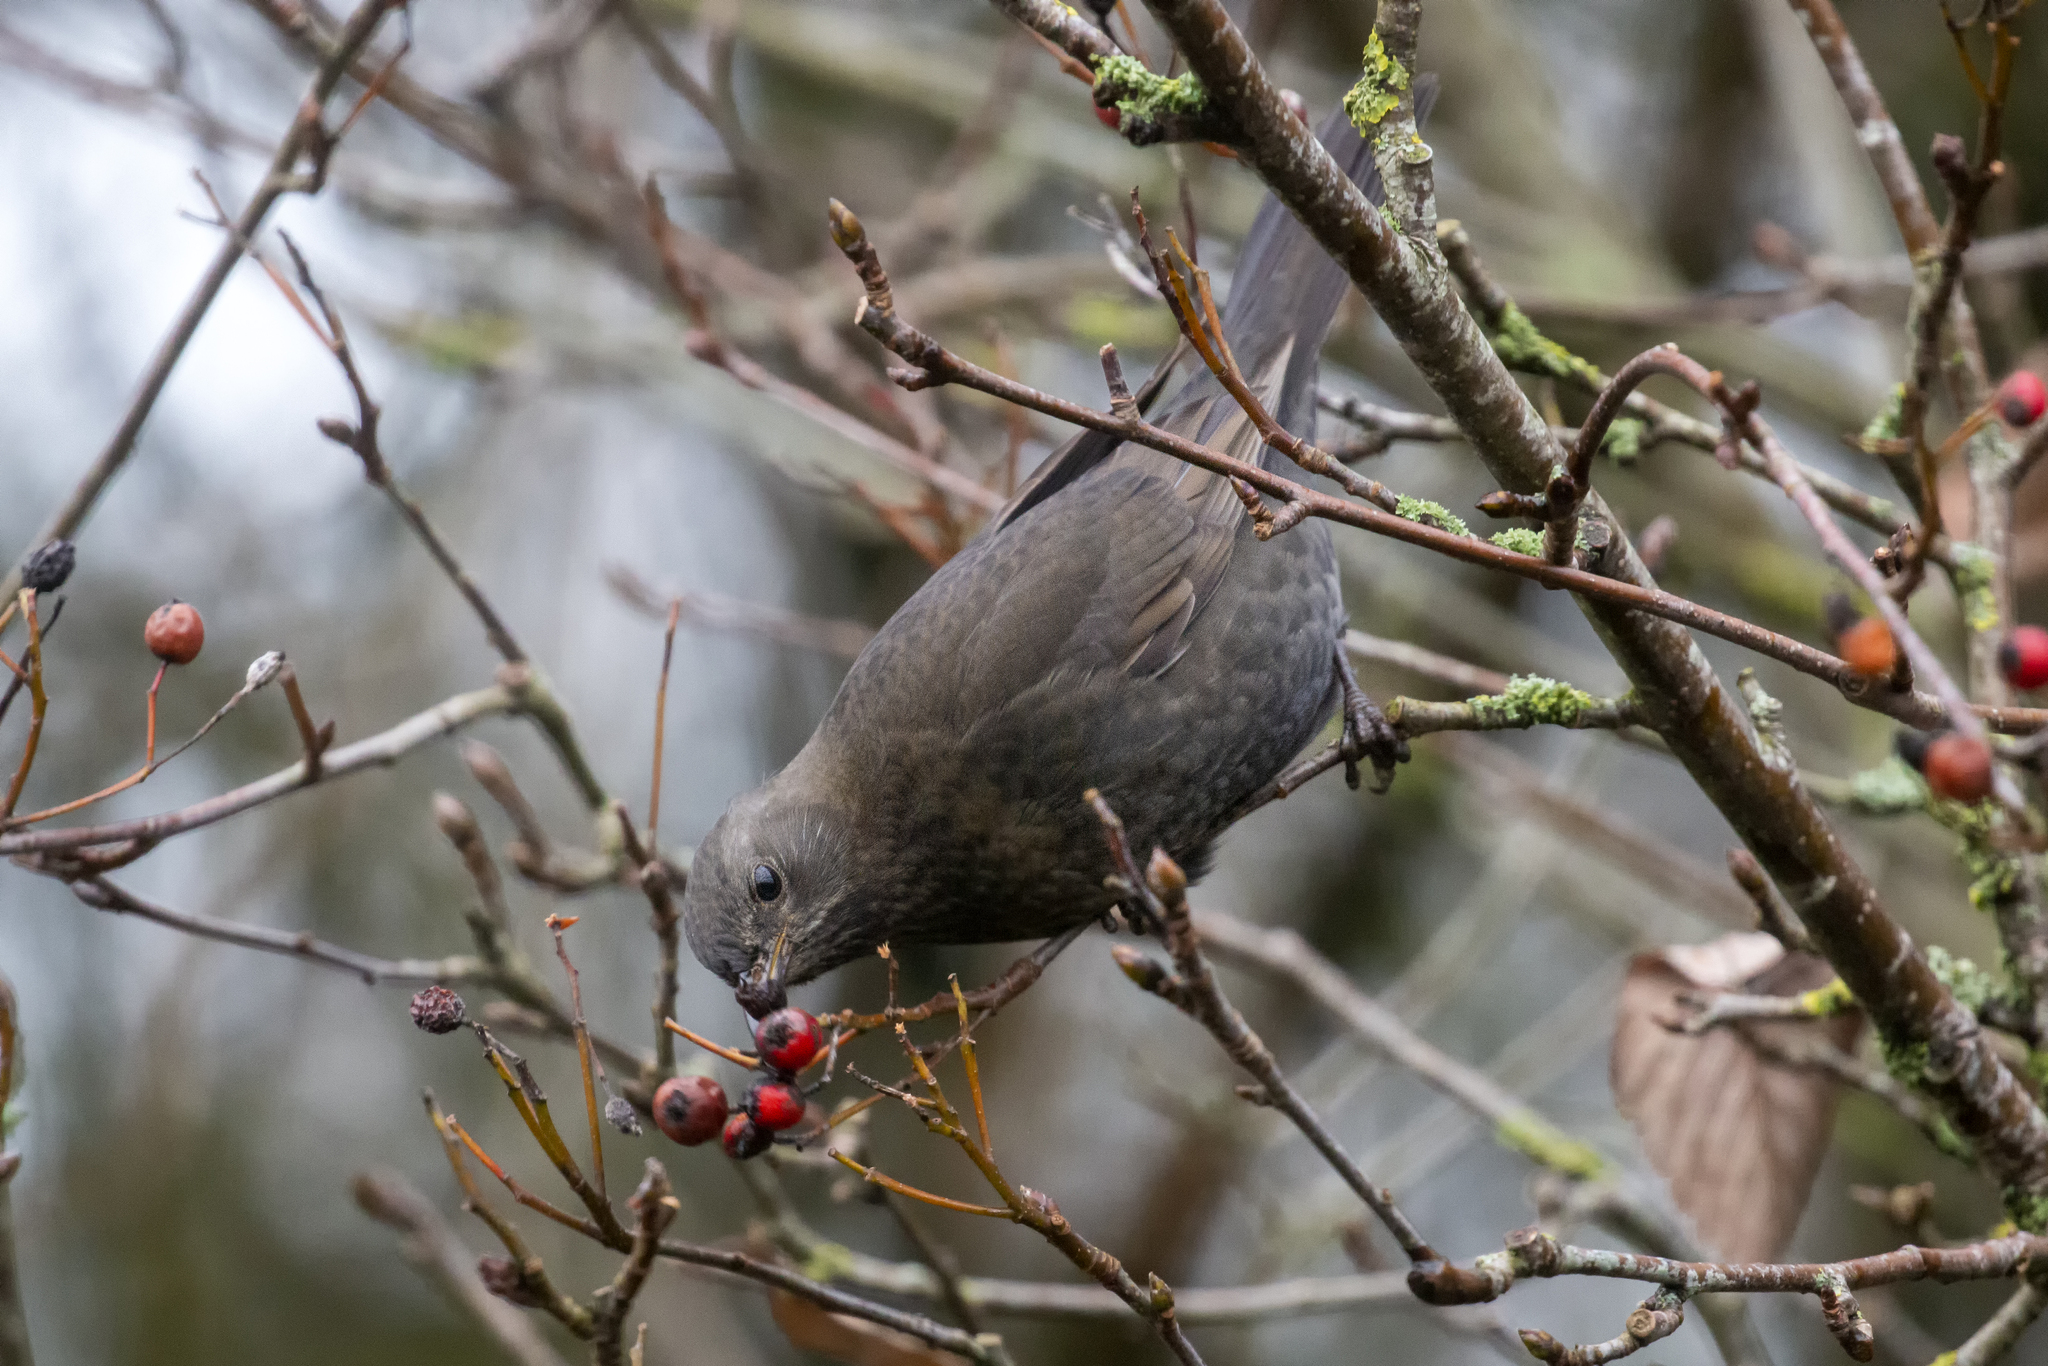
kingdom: Animalia
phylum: Chordata
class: Aves
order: Passeriformes
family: Turdidae
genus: Turdus
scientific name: Turdus merula
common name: Common blackbird
